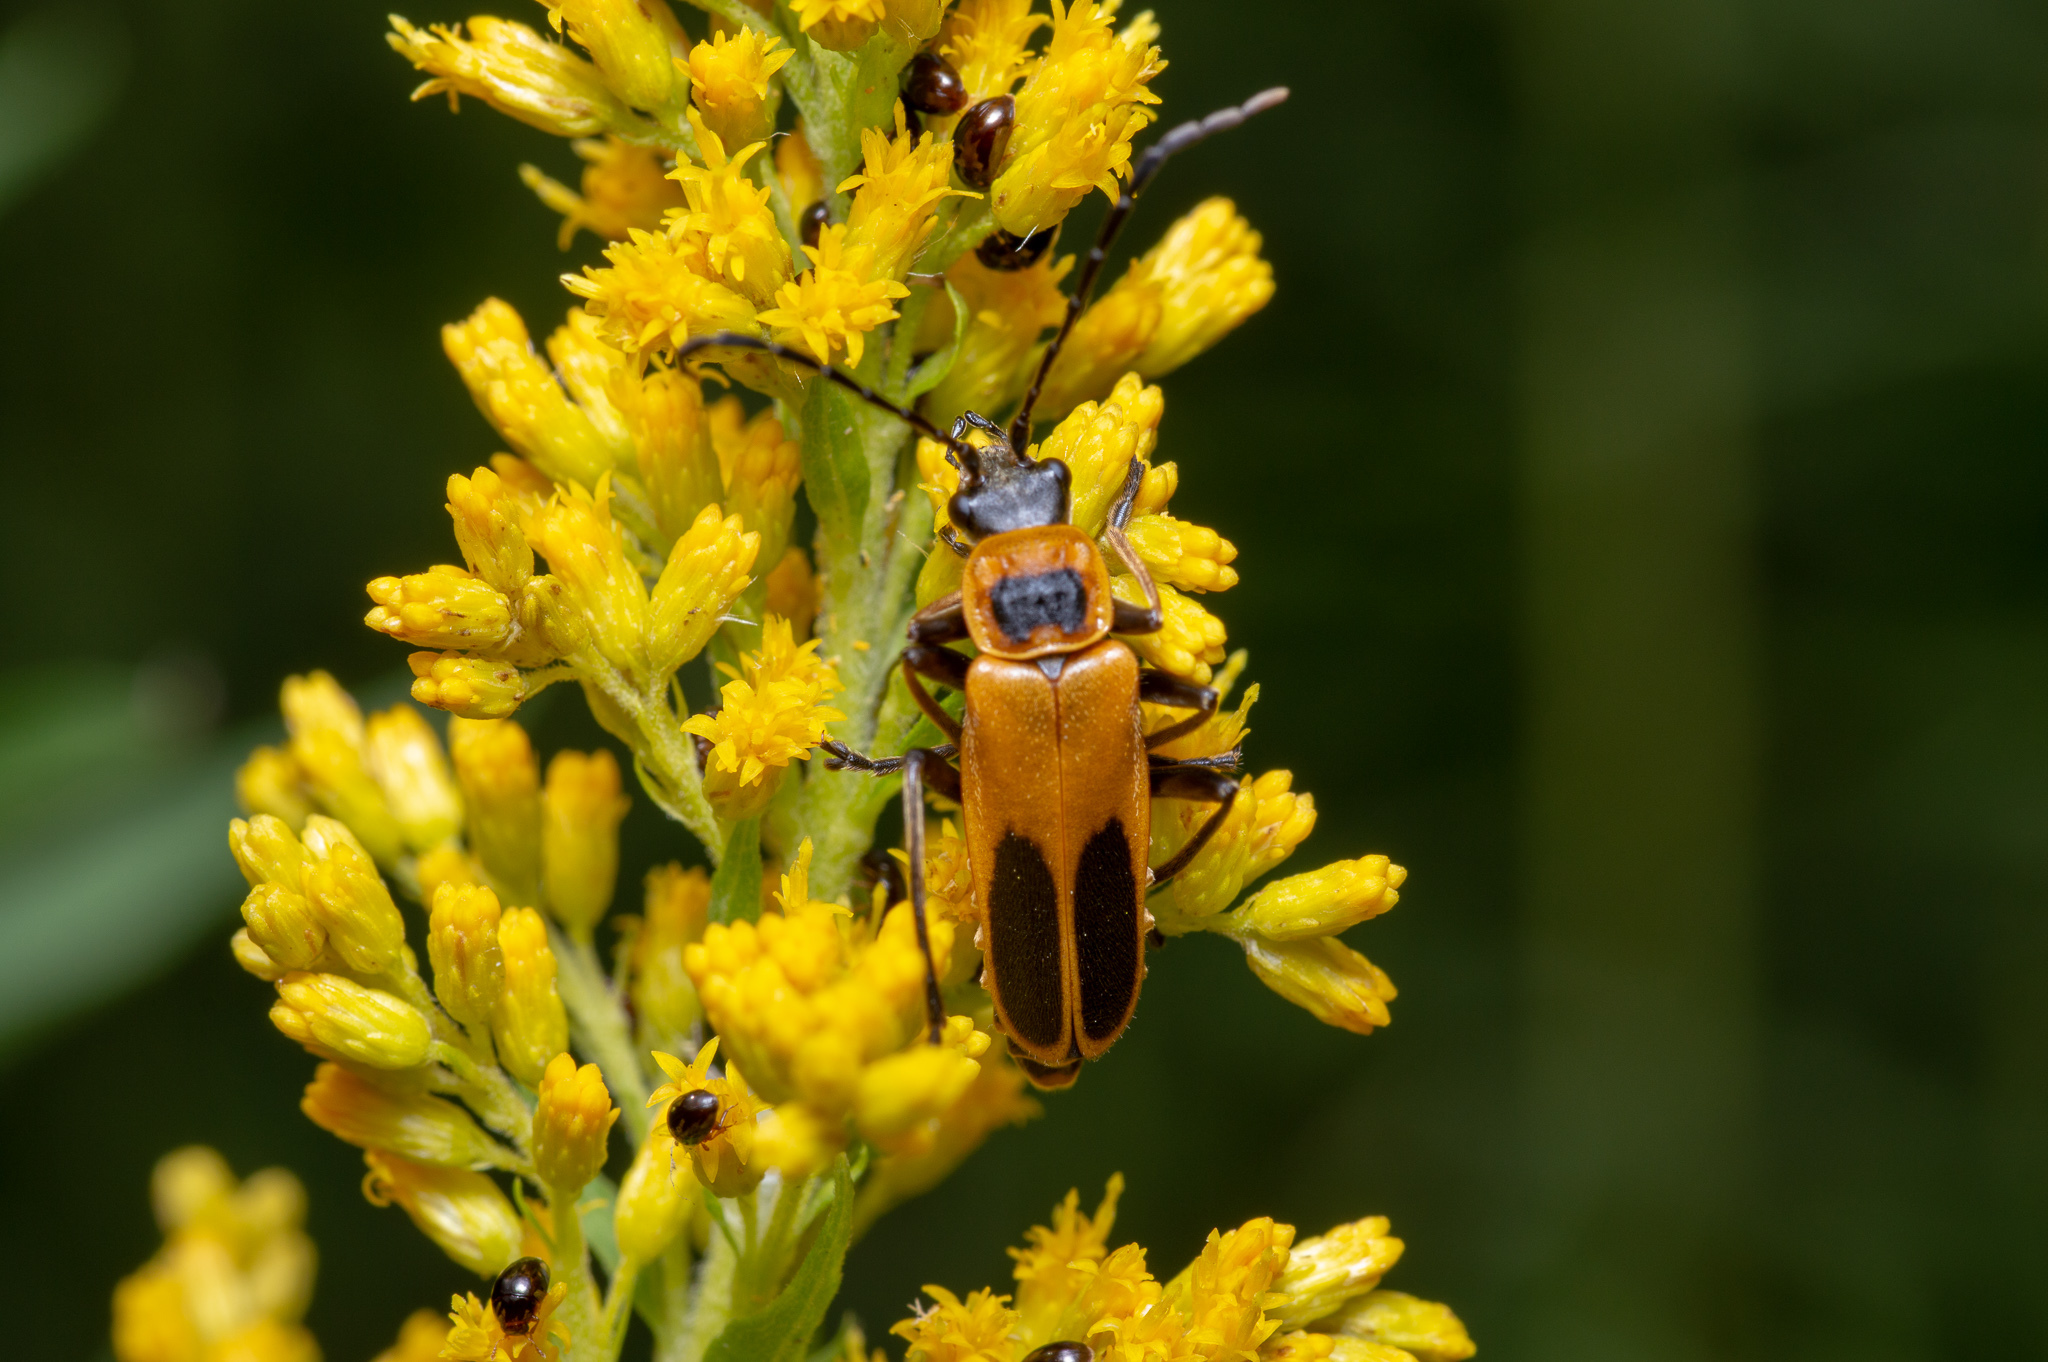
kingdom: Animalia
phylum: Arthropoda
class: Insecta
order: Coleoptera
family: Cantharidae
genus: Chauliognathus
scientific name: Chauliognathus pensylvanicus
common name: Goldenrod soldier beetle
